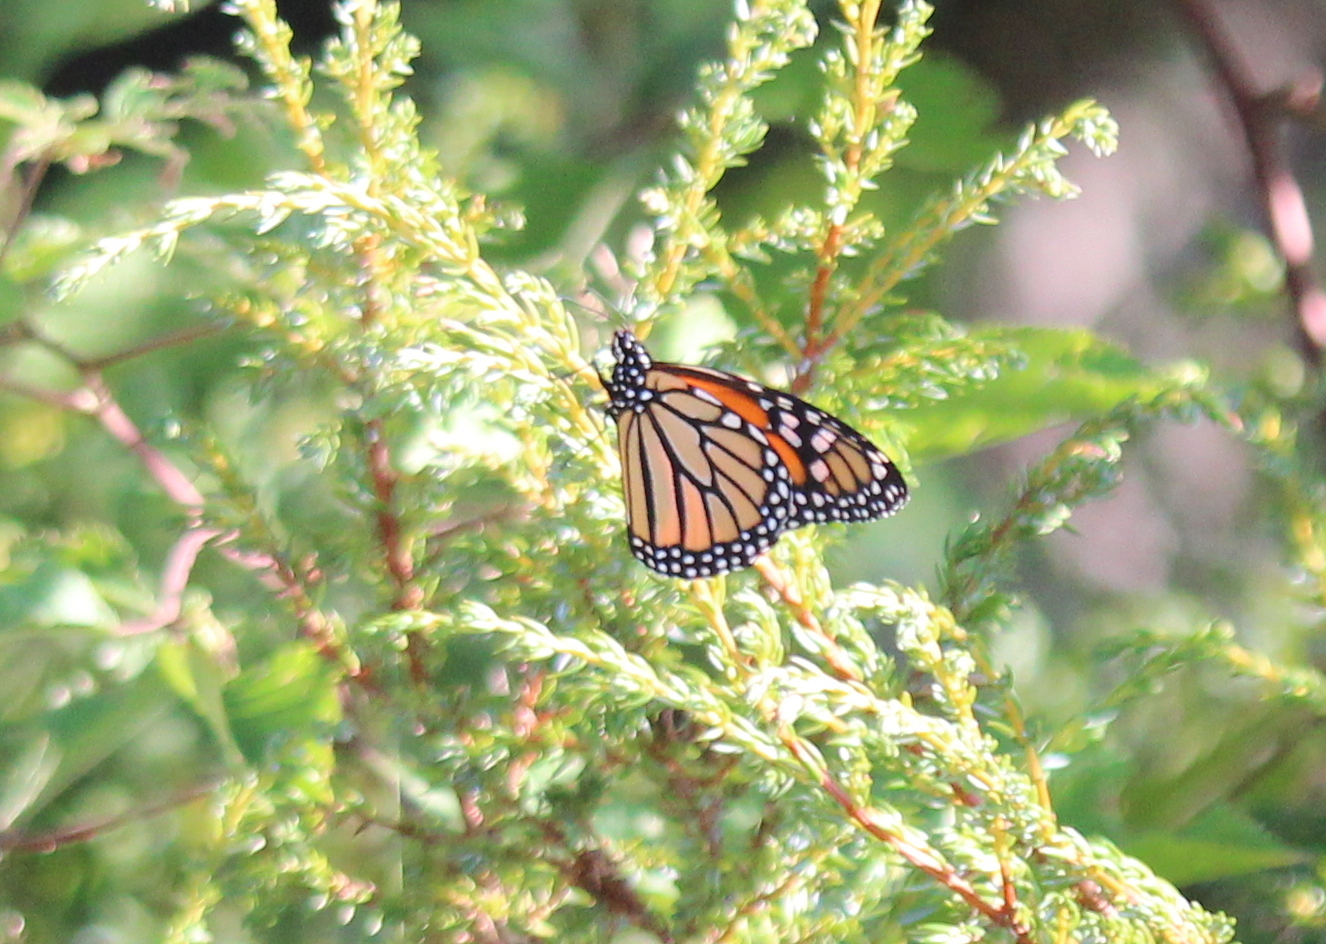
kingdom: Animalia
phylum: Arthropoda
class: Insecta
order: Lepidoptera
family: Nymphalidae
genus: Danaus
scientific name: Danaus plexippus
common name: Monarch
